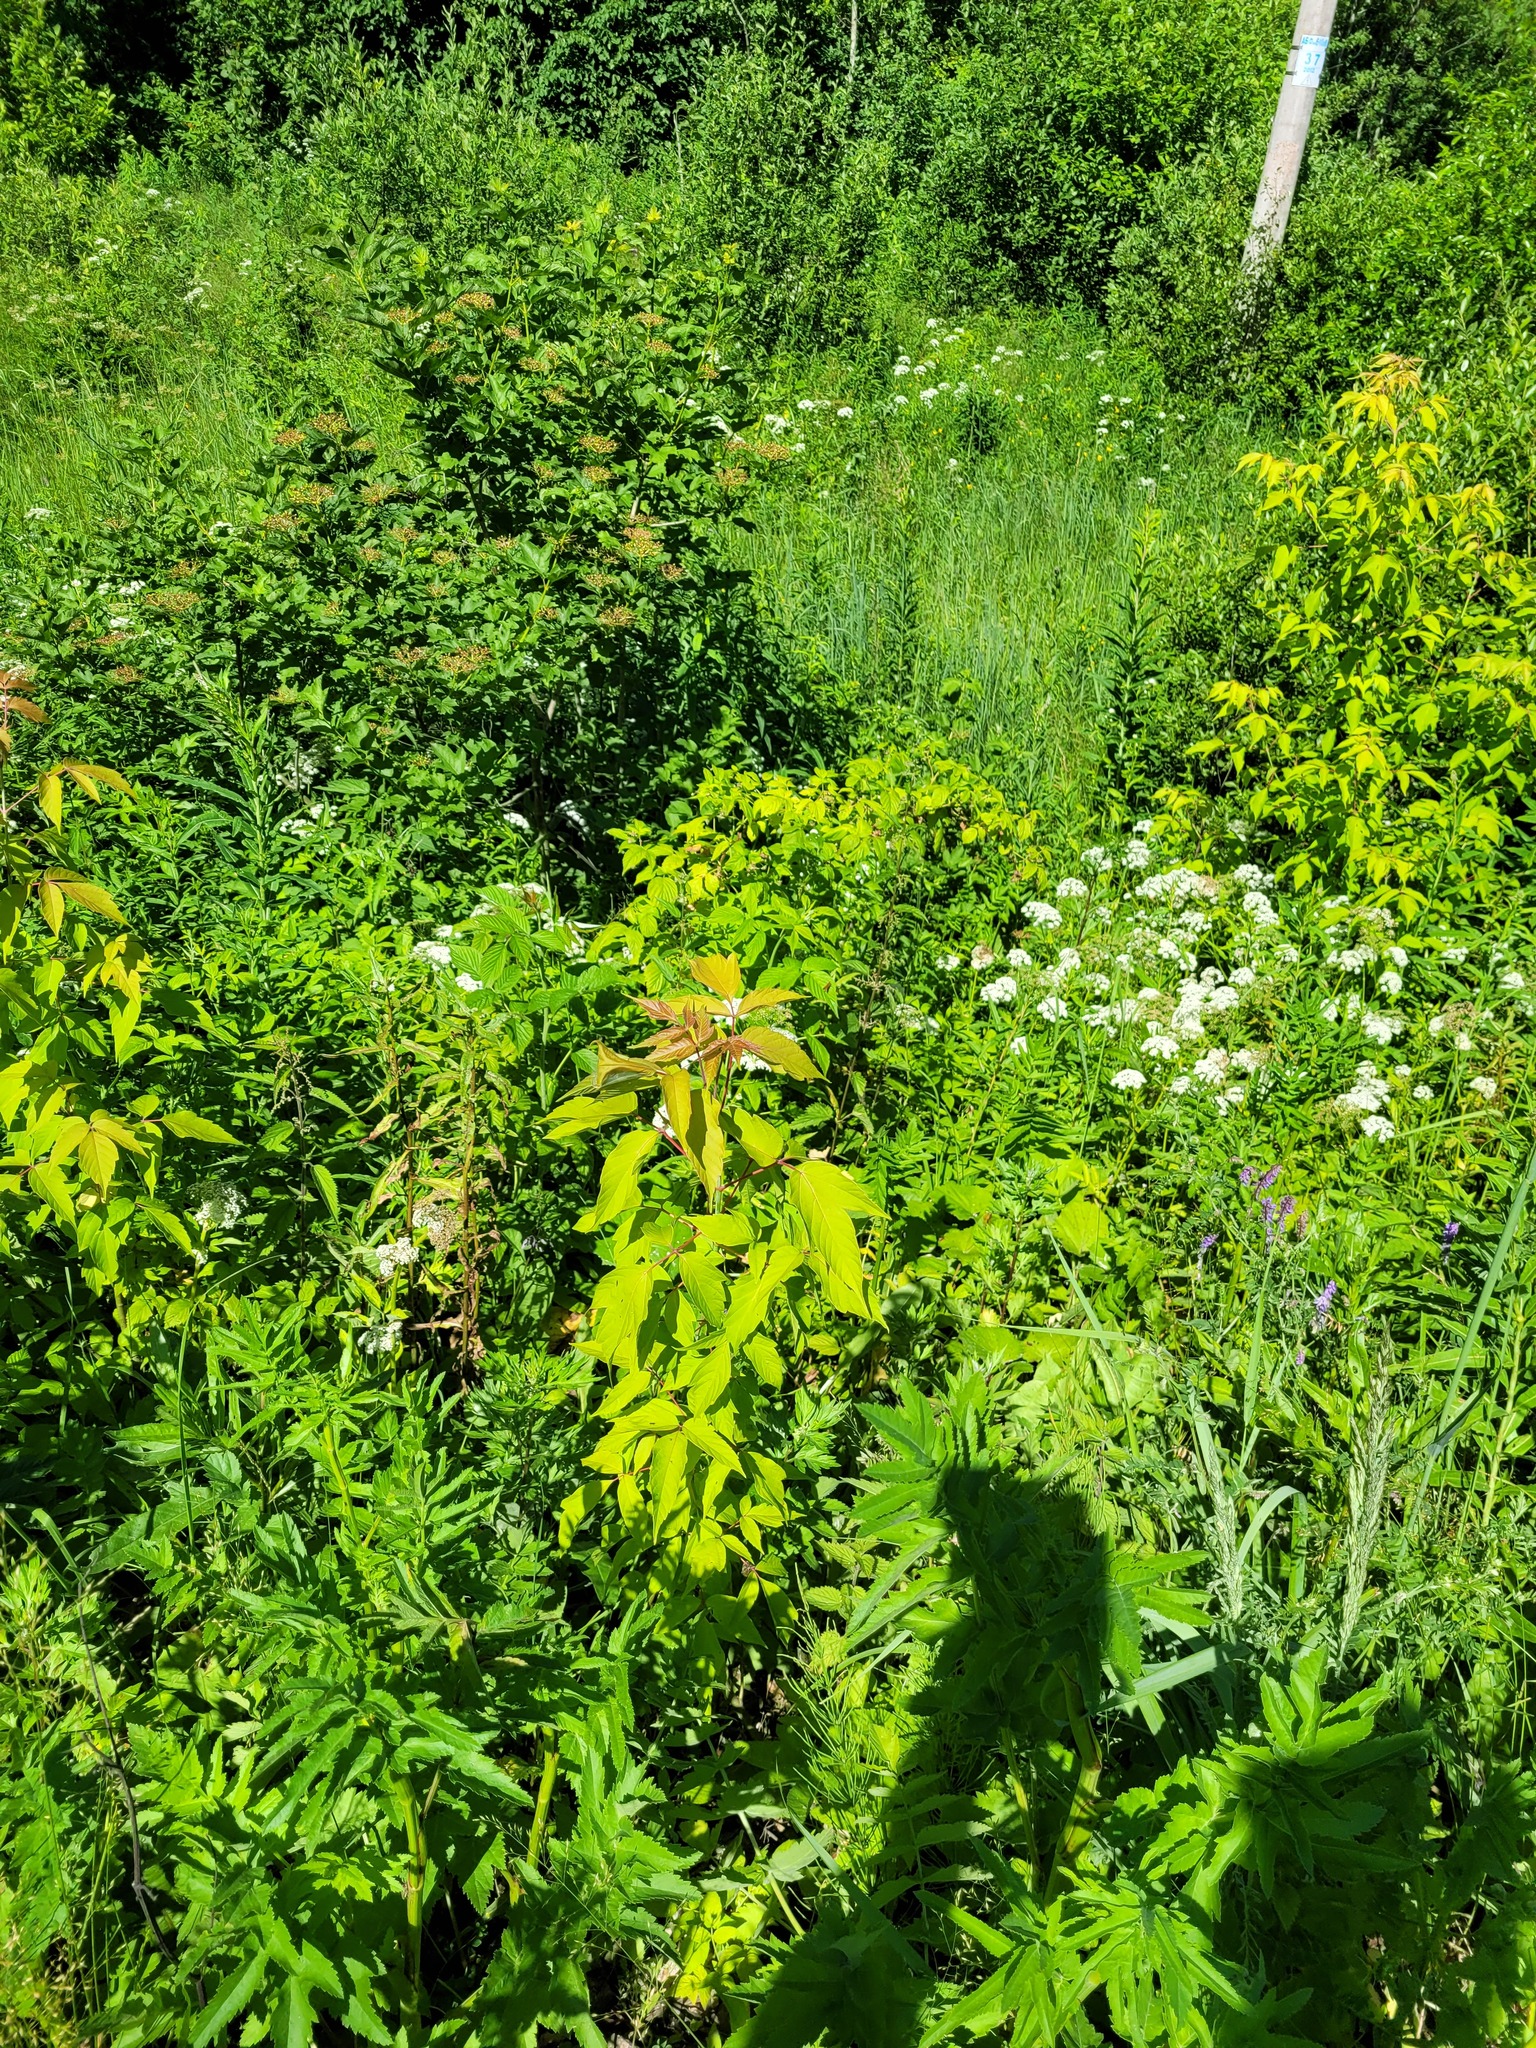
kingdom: Plantae
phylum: Tracheophyta
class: Magnoliopsida
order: Sapindales
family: Sapindaceae
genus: Acer
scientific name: Acer negundo
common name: Ashleaf maple
